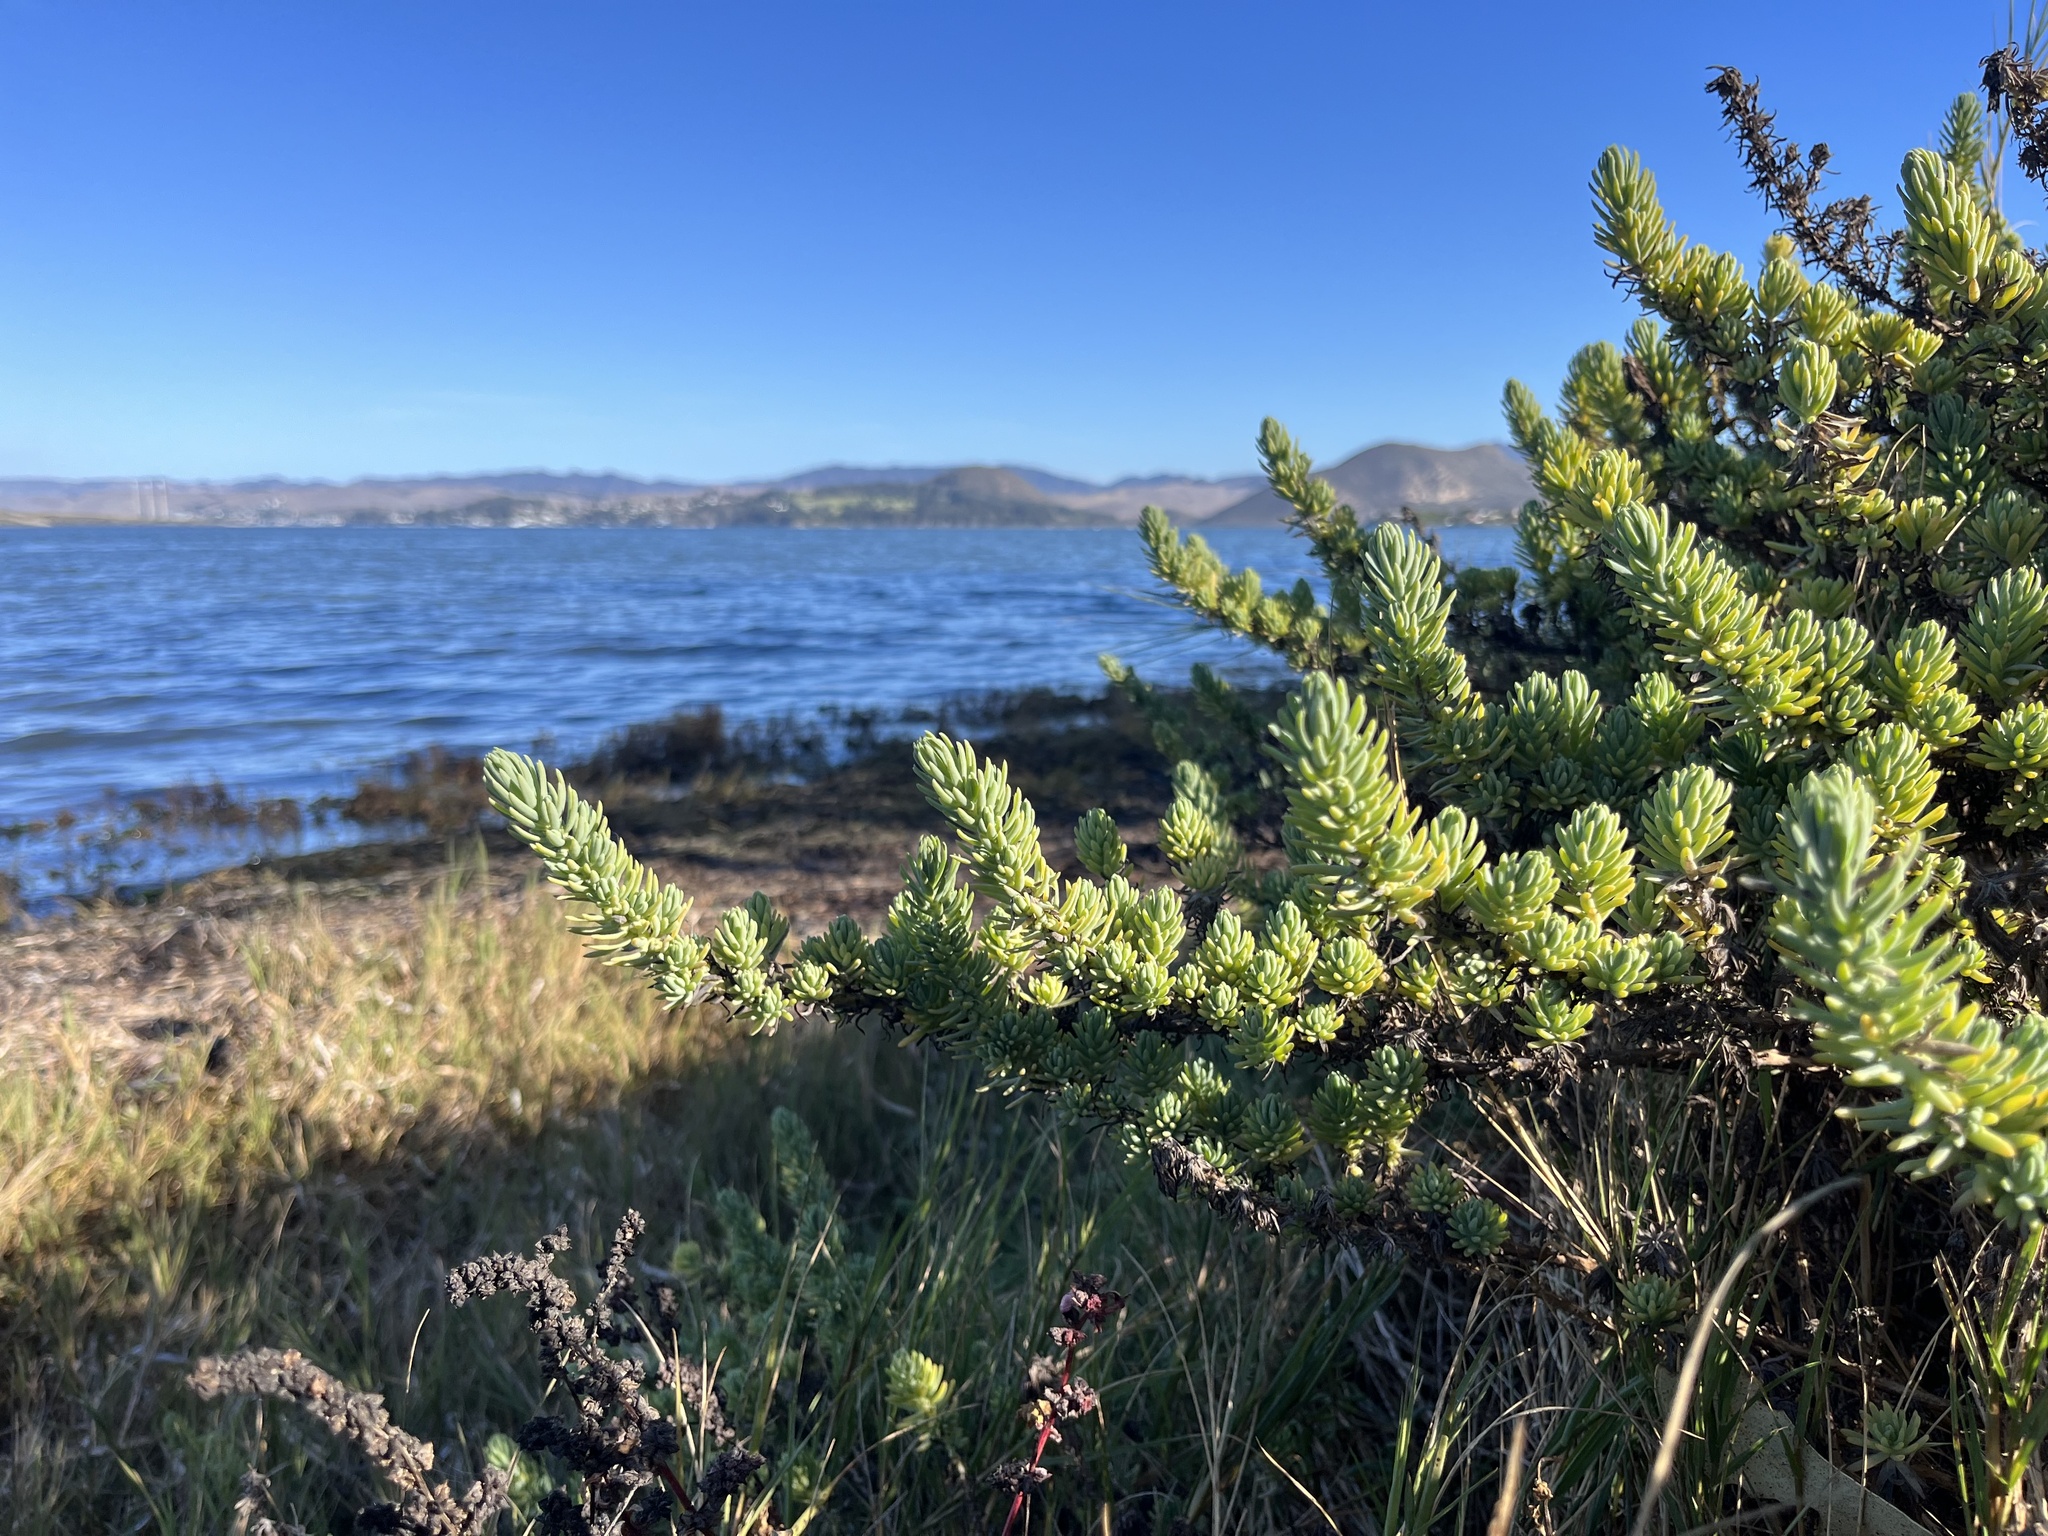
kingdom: Plantae
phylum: Tracheophyta
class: Magnoliopsida
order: Caryophyllales
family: Amaranthaceae
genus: Suaeda
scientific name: Suaeda californica
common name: California sea-blite
